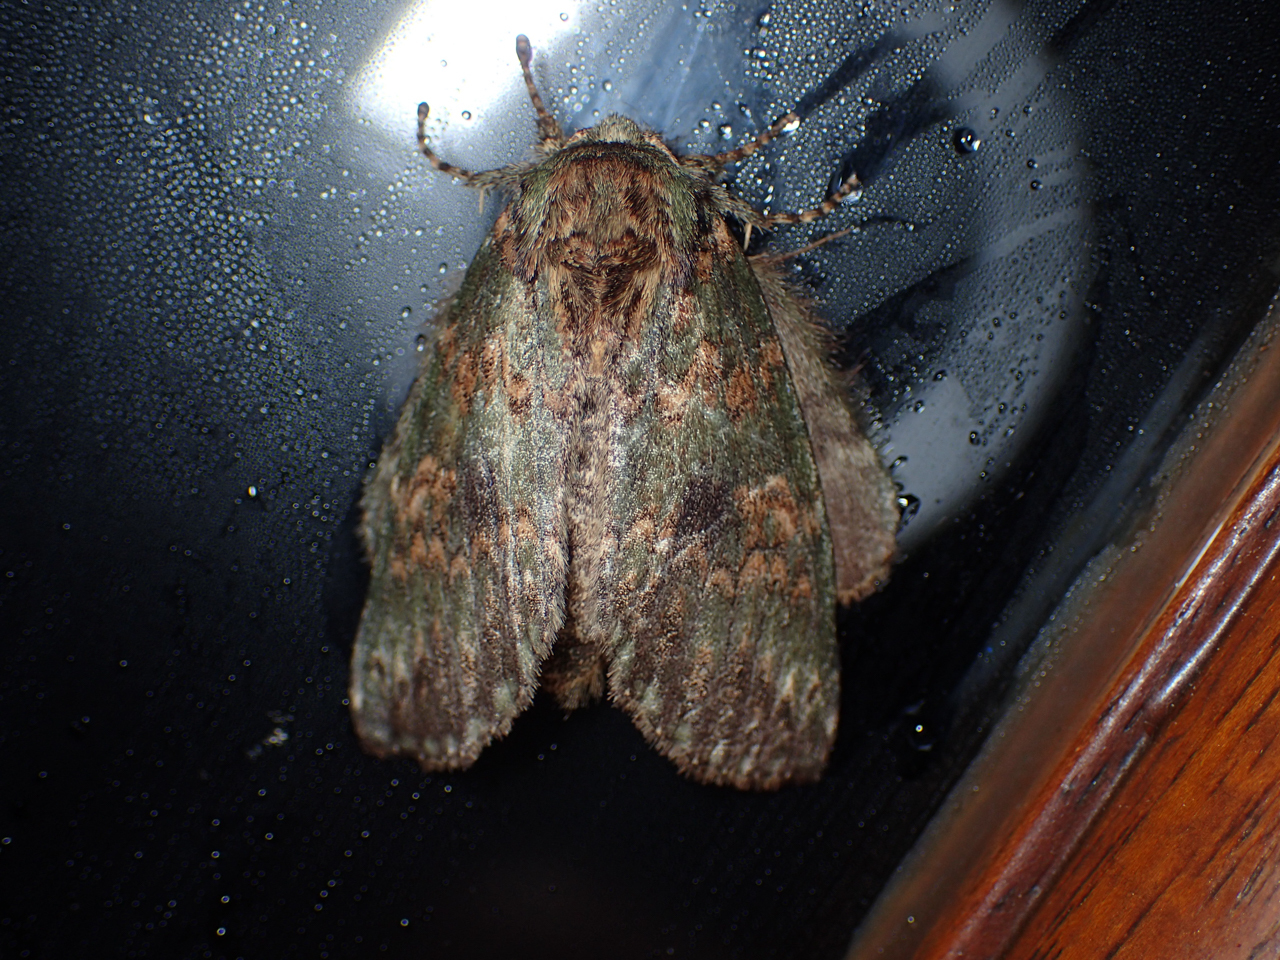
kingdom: Animalia
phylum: Arthropoda
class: Insecta
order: Lepidoptera
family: Notodontidae
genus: Disphragis
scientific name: Disphragis Cecrita biundata
